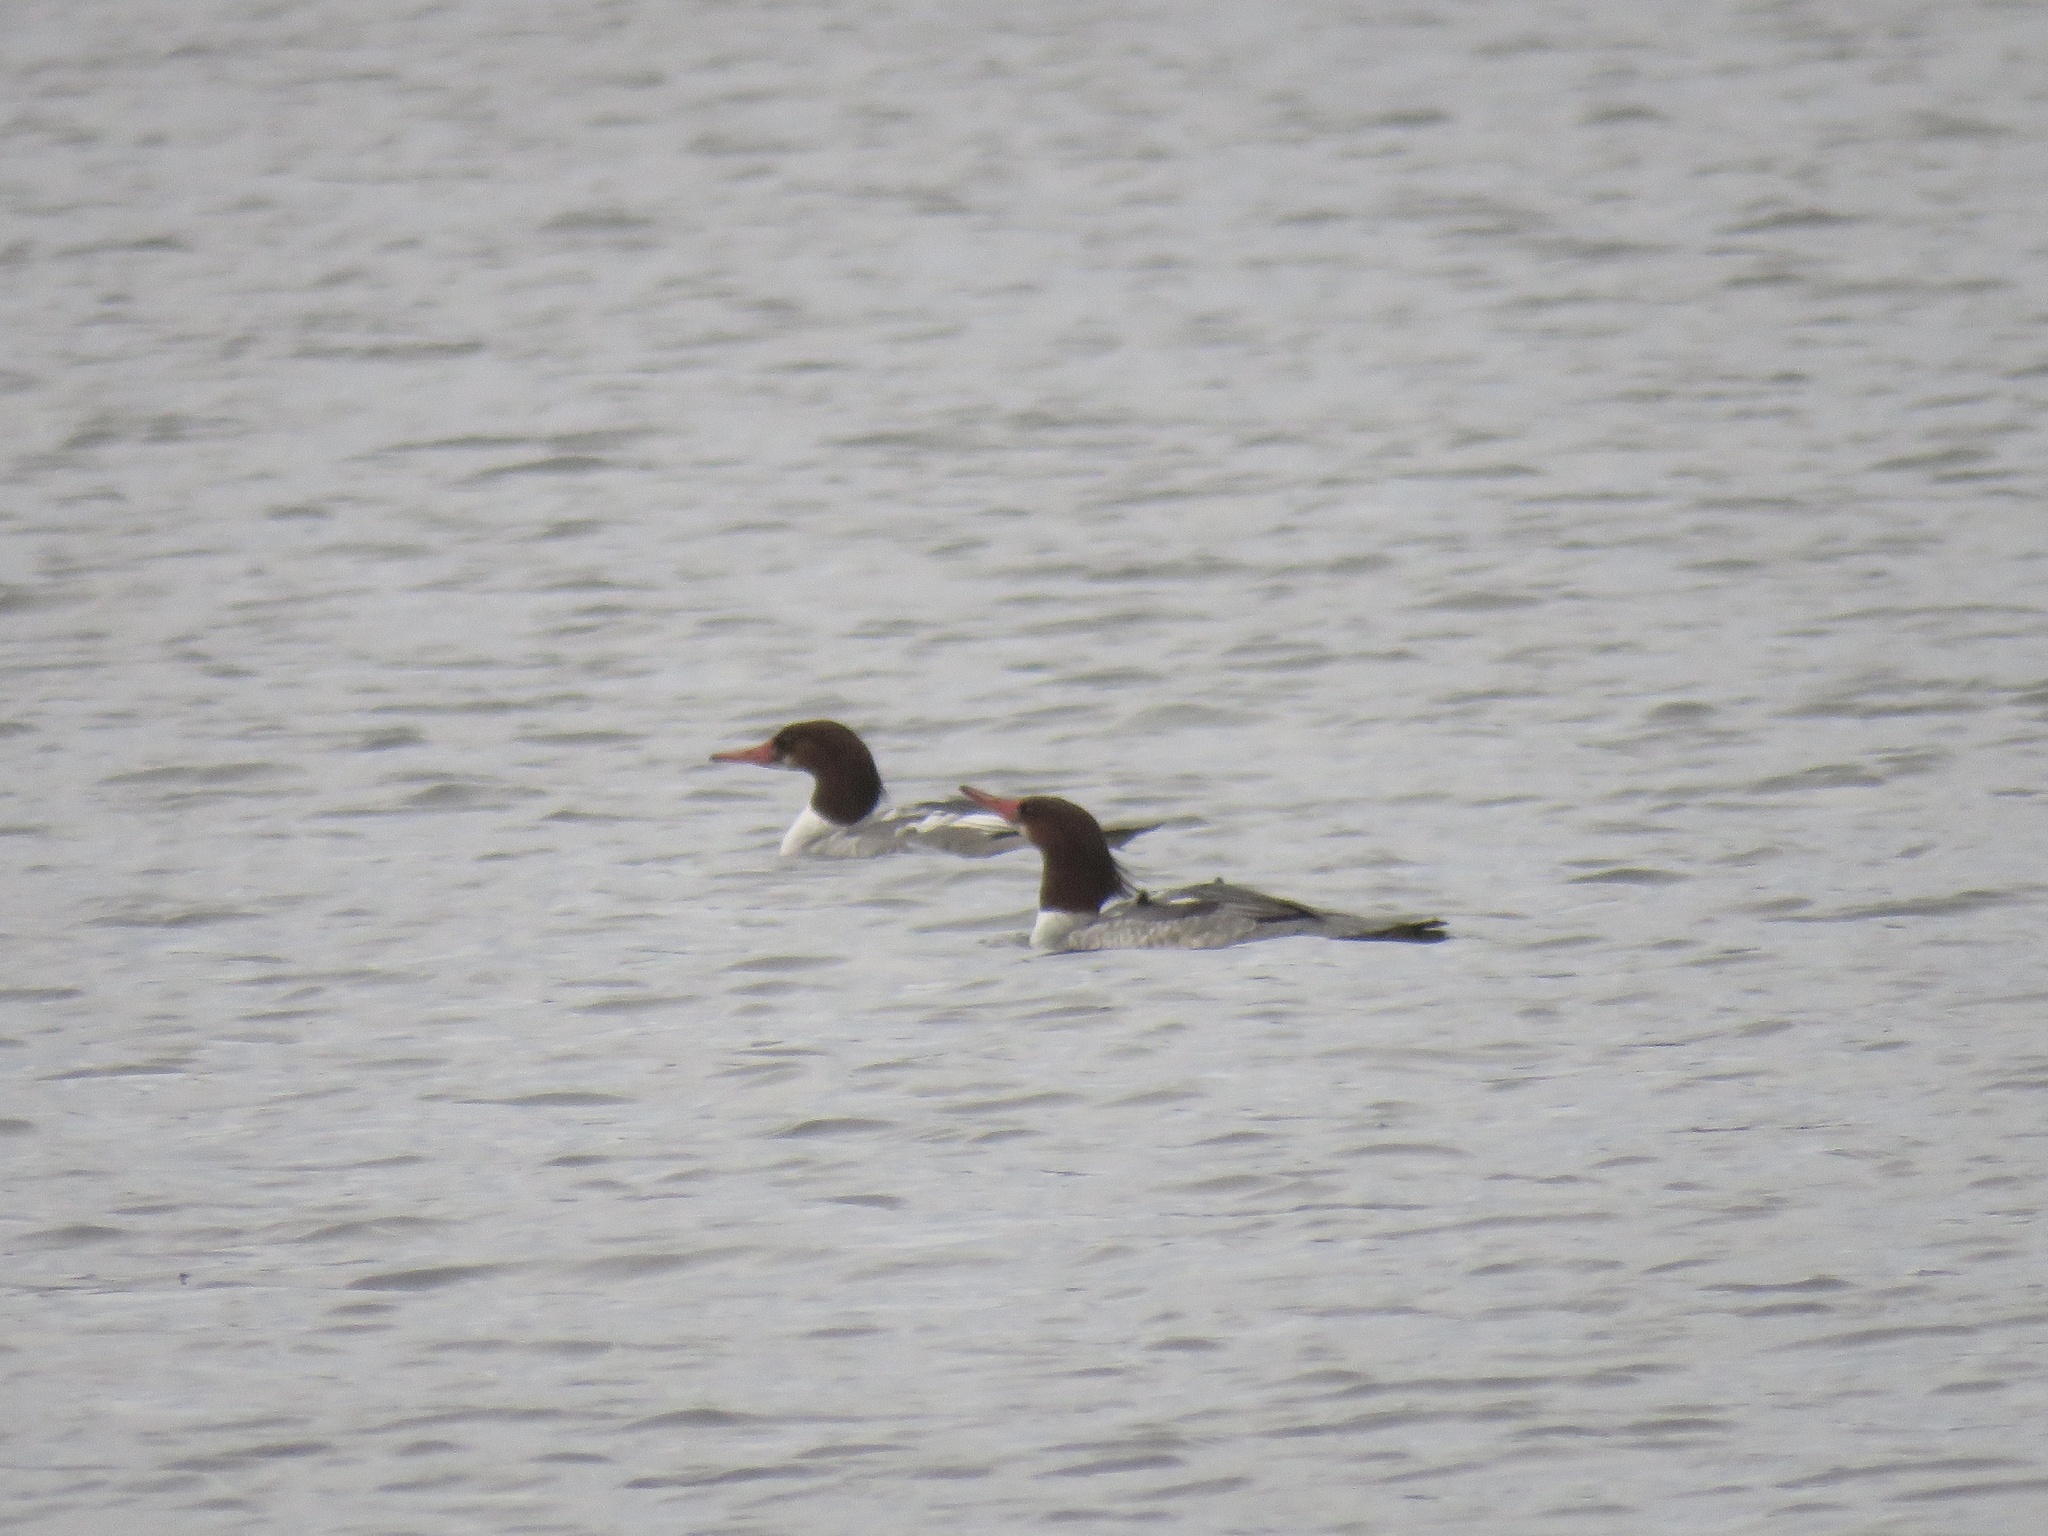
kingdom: Animalia
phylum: Chordata
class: Aves
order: Anseriformes
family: Anatidae
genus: Mergus
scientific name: Mergus merganser
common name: Common merganser
